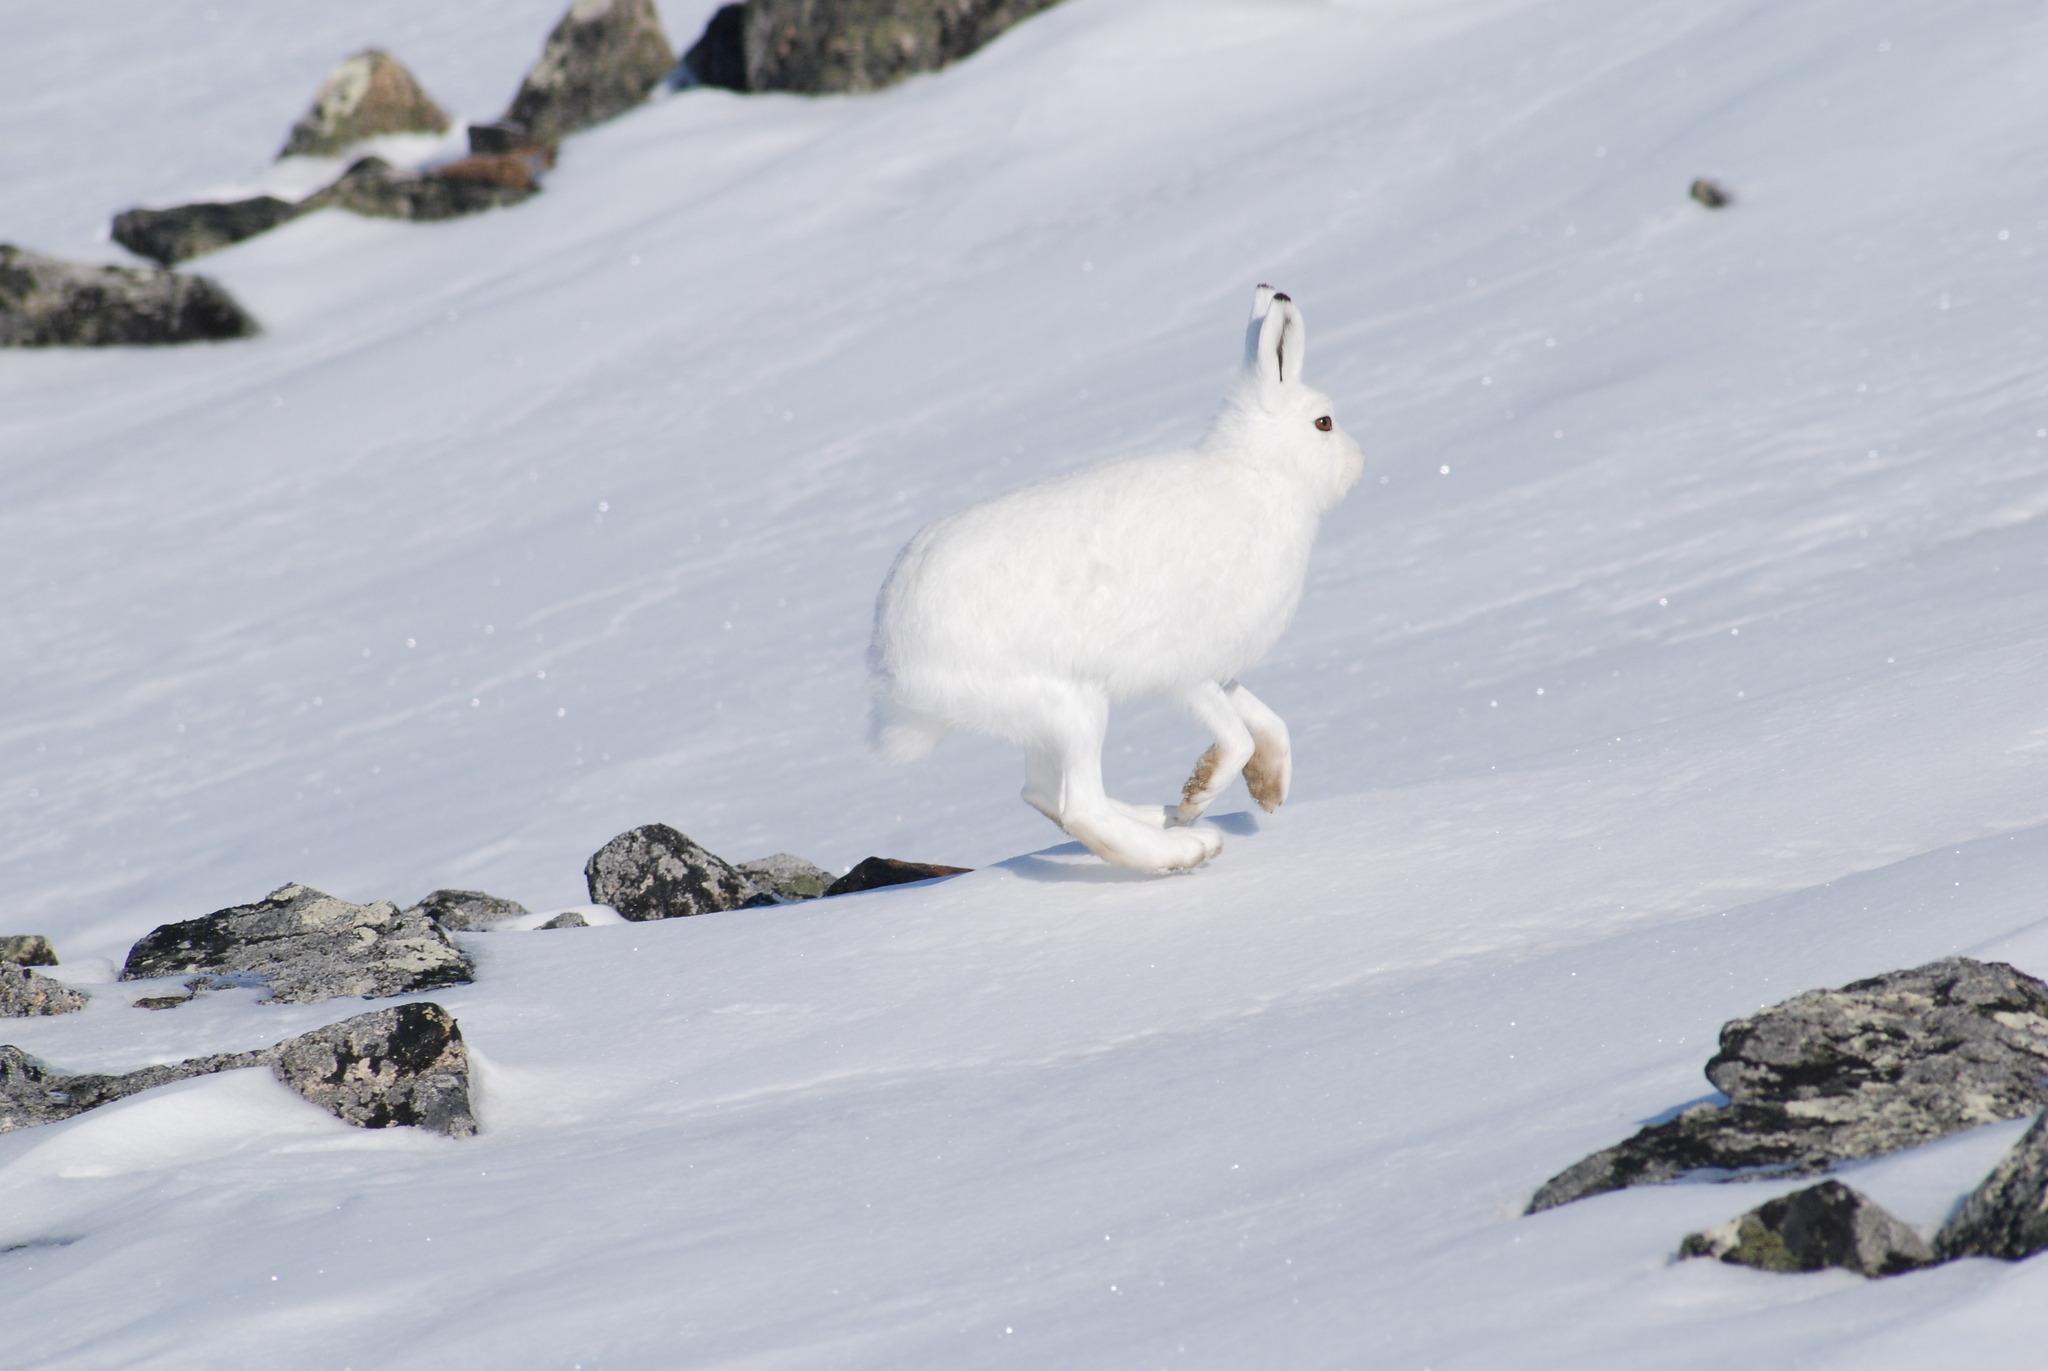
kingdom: Animalia
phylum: Chordata
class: Mammalia
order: Lagomorpha
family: Leporidae
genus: Lepus
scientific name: Lepus timidus
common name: Mountain hare
